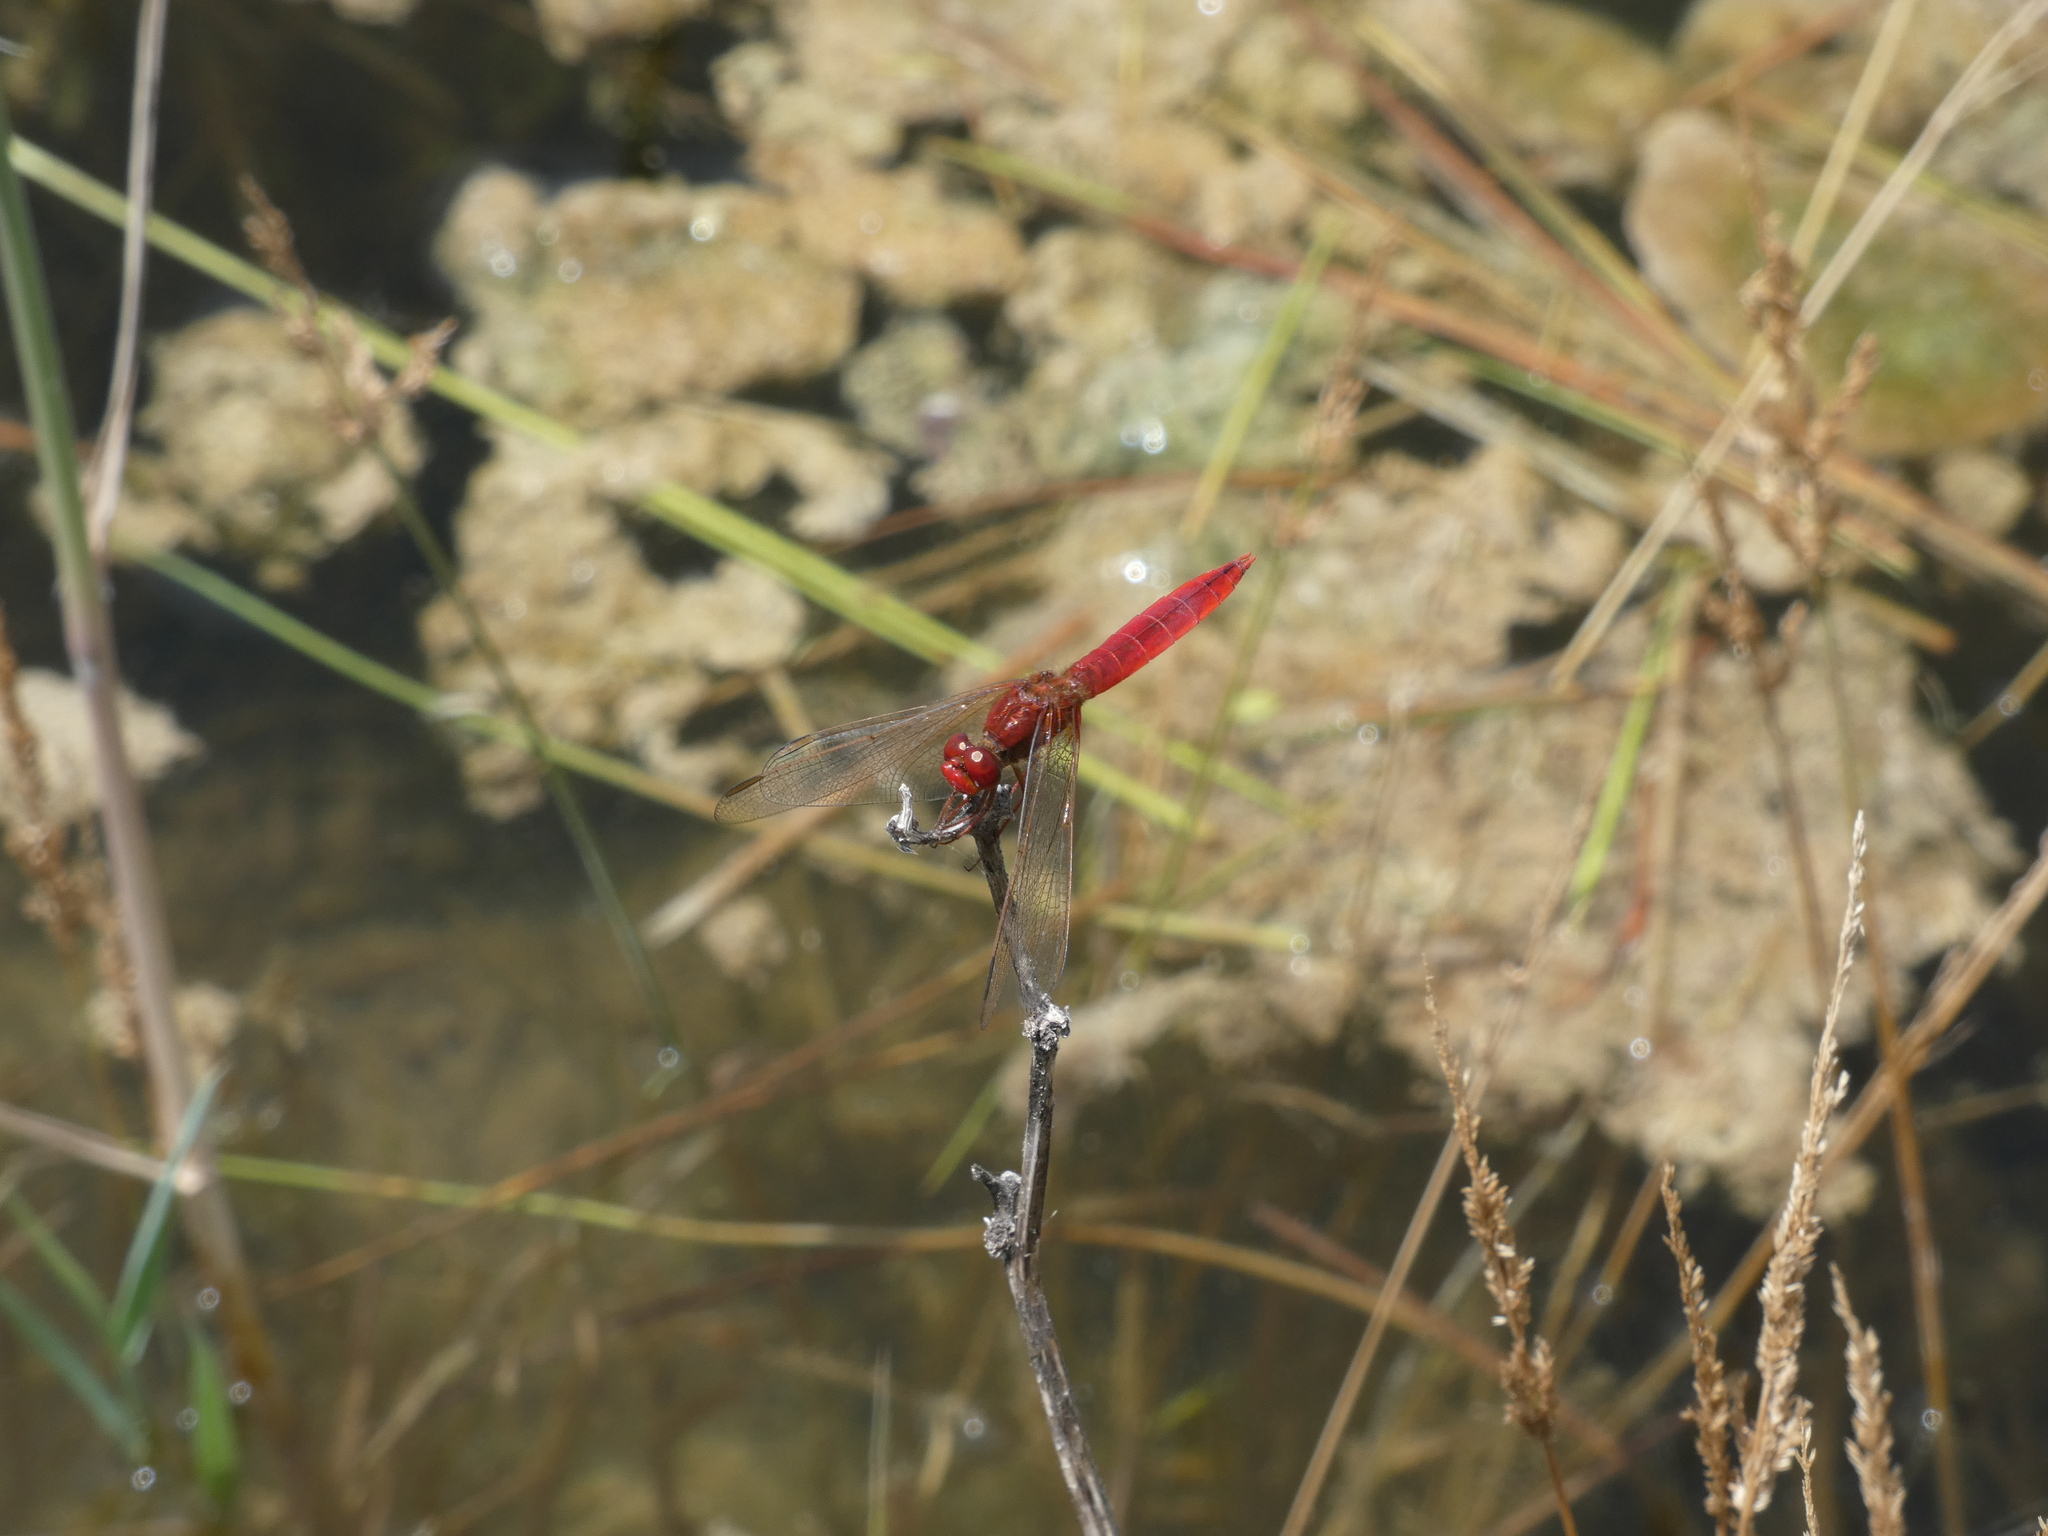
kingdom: Animalia
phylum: Arthropoda
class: Insecta
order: Odonata
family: Libellulidae
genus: Crocothemis
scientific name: Crocothemis erythraea
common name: Scarlet dragonfly
